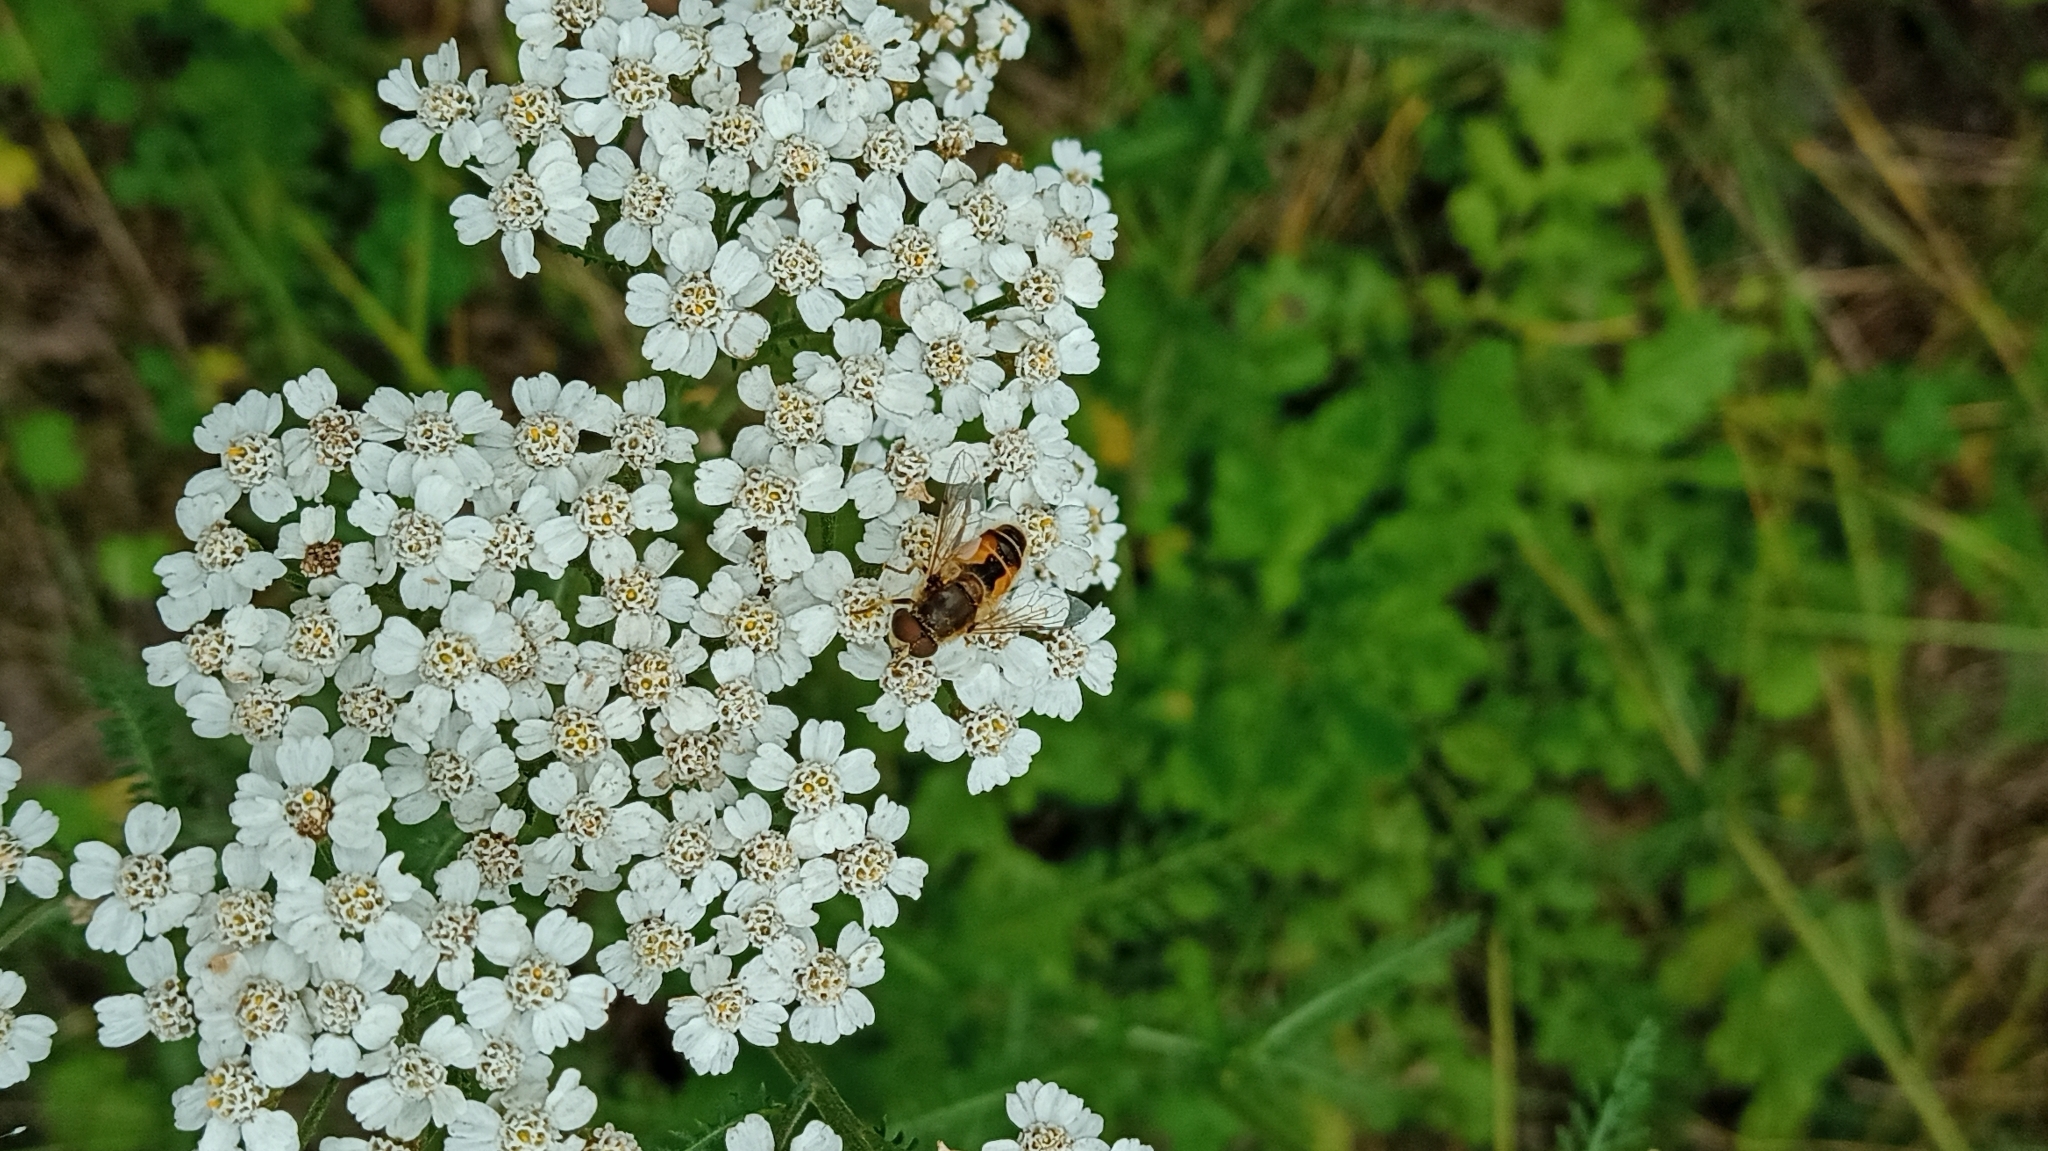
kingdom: Animalia
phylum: Arthropoda
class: Insecta
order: Diptera
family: Syrphidae
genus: Eristalis
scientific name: Eristalis arbustorum
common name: Hover fly
